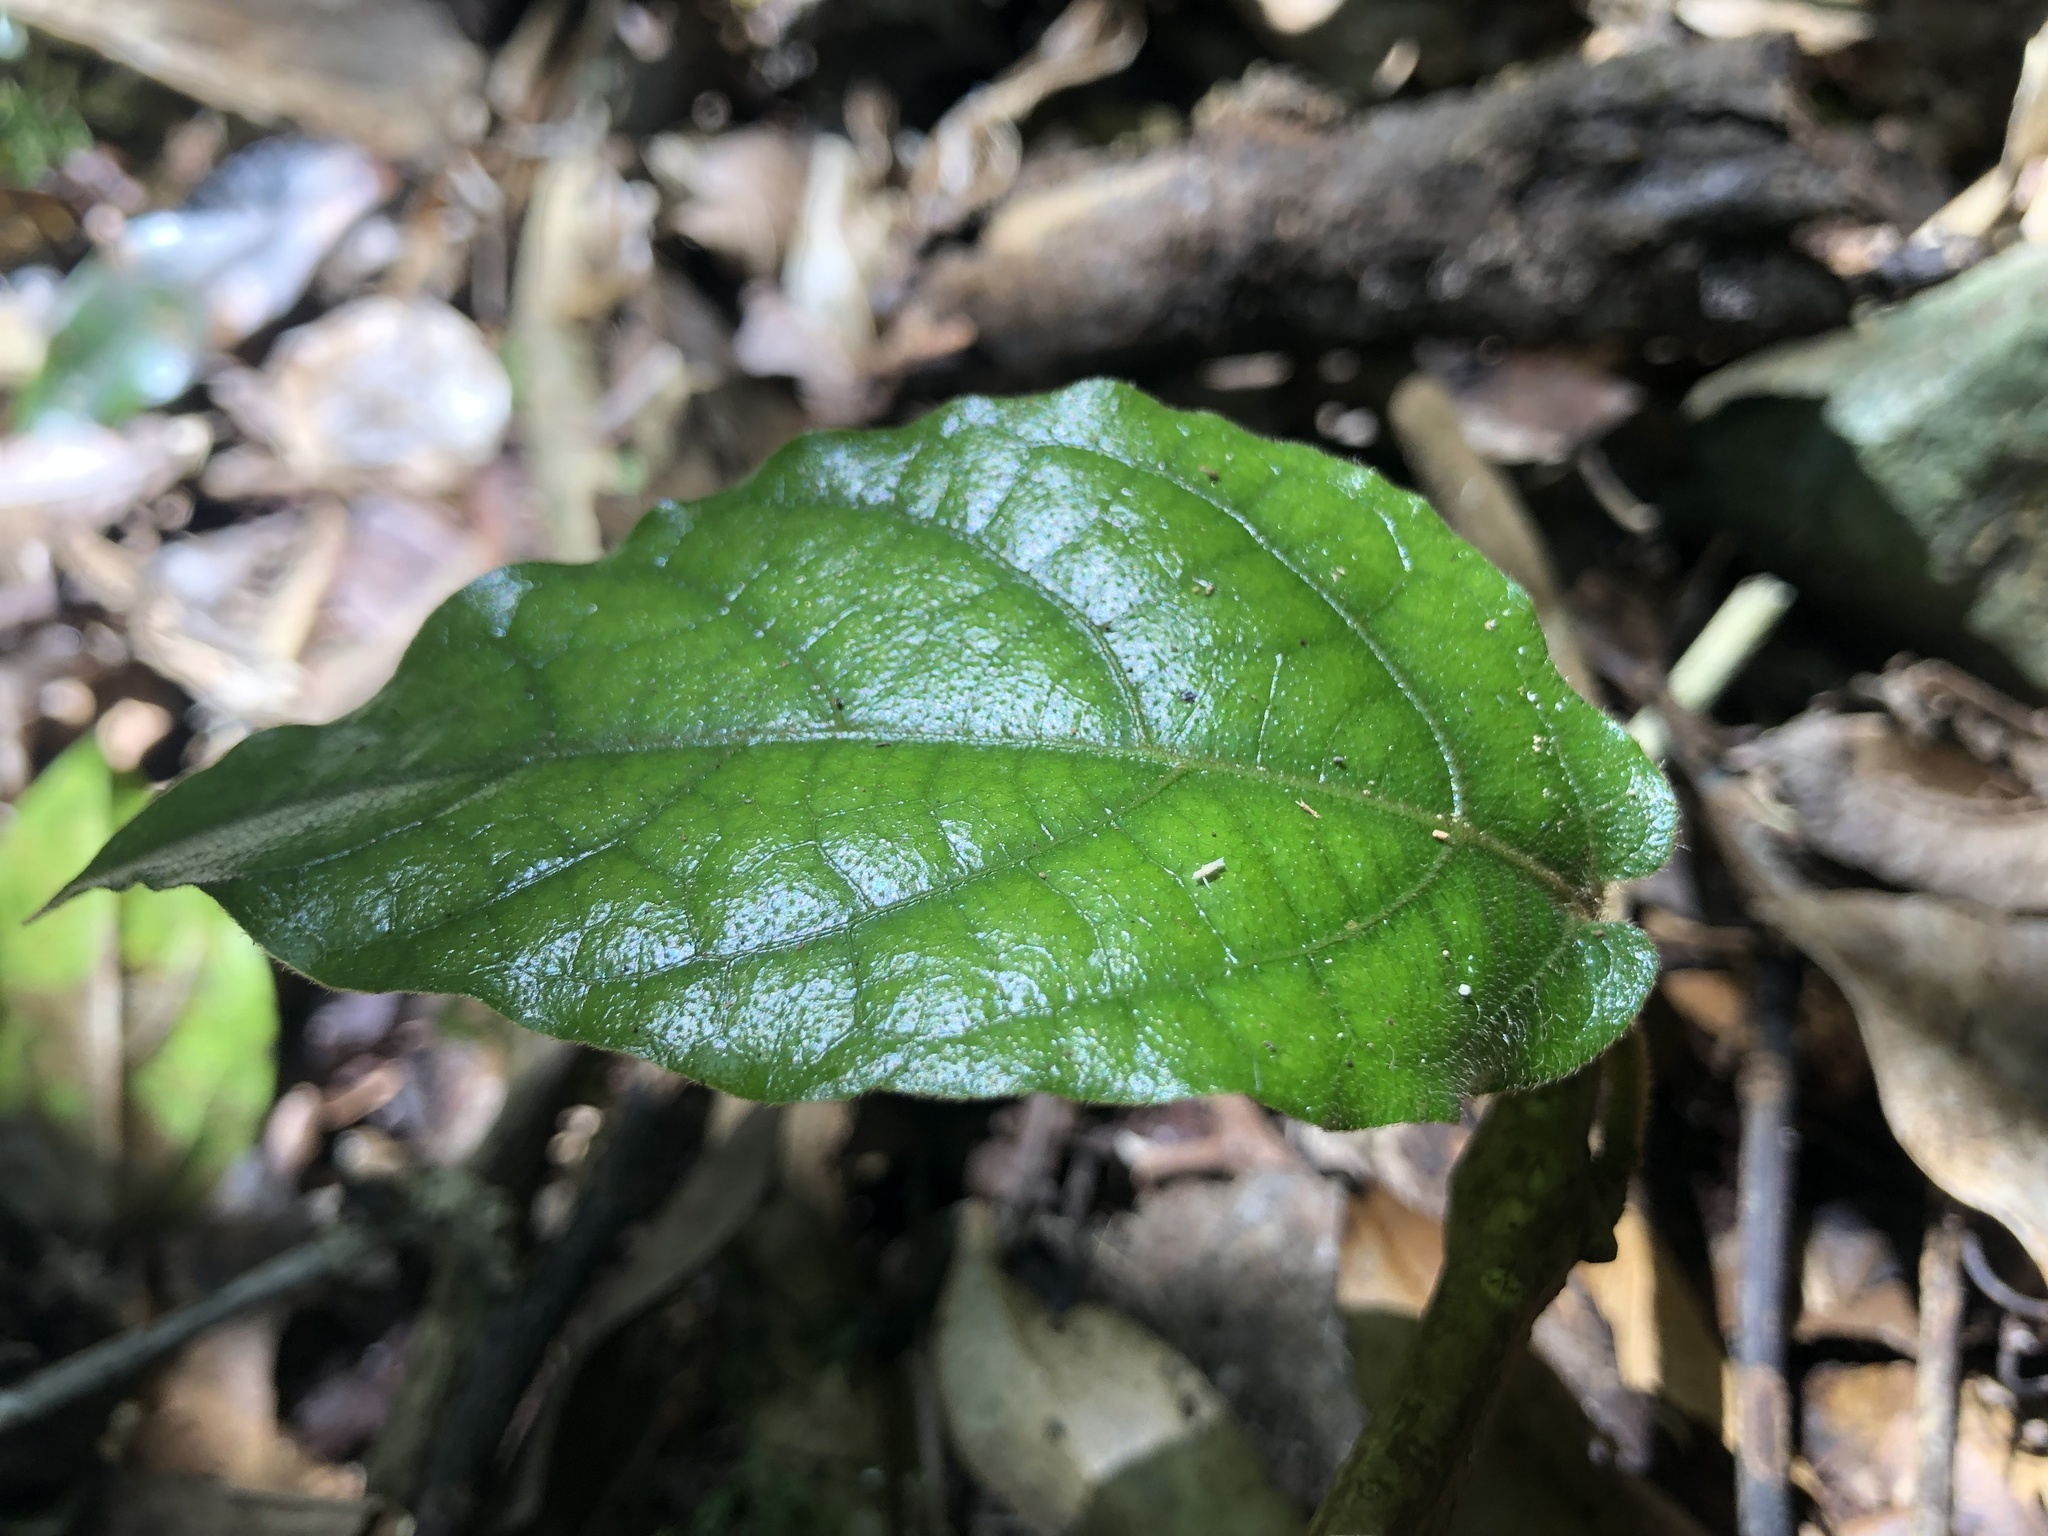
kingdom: Plantae
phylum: Tracheophyta
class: Magnoliopsida
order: Piperales
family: Aristolochiaceae
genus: Aristolochia
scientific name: Aristolochia praevenosa
